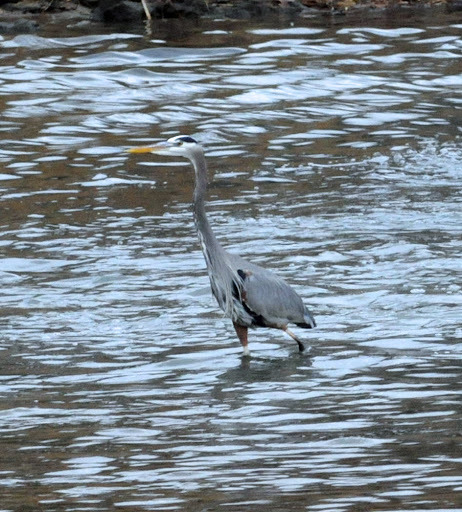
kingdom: Animalia
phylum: Chordata
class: Aves
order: Pelecaniformes
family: Ardeidae
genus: Ardea
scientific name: Ardea herodias
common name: Great blue heron
